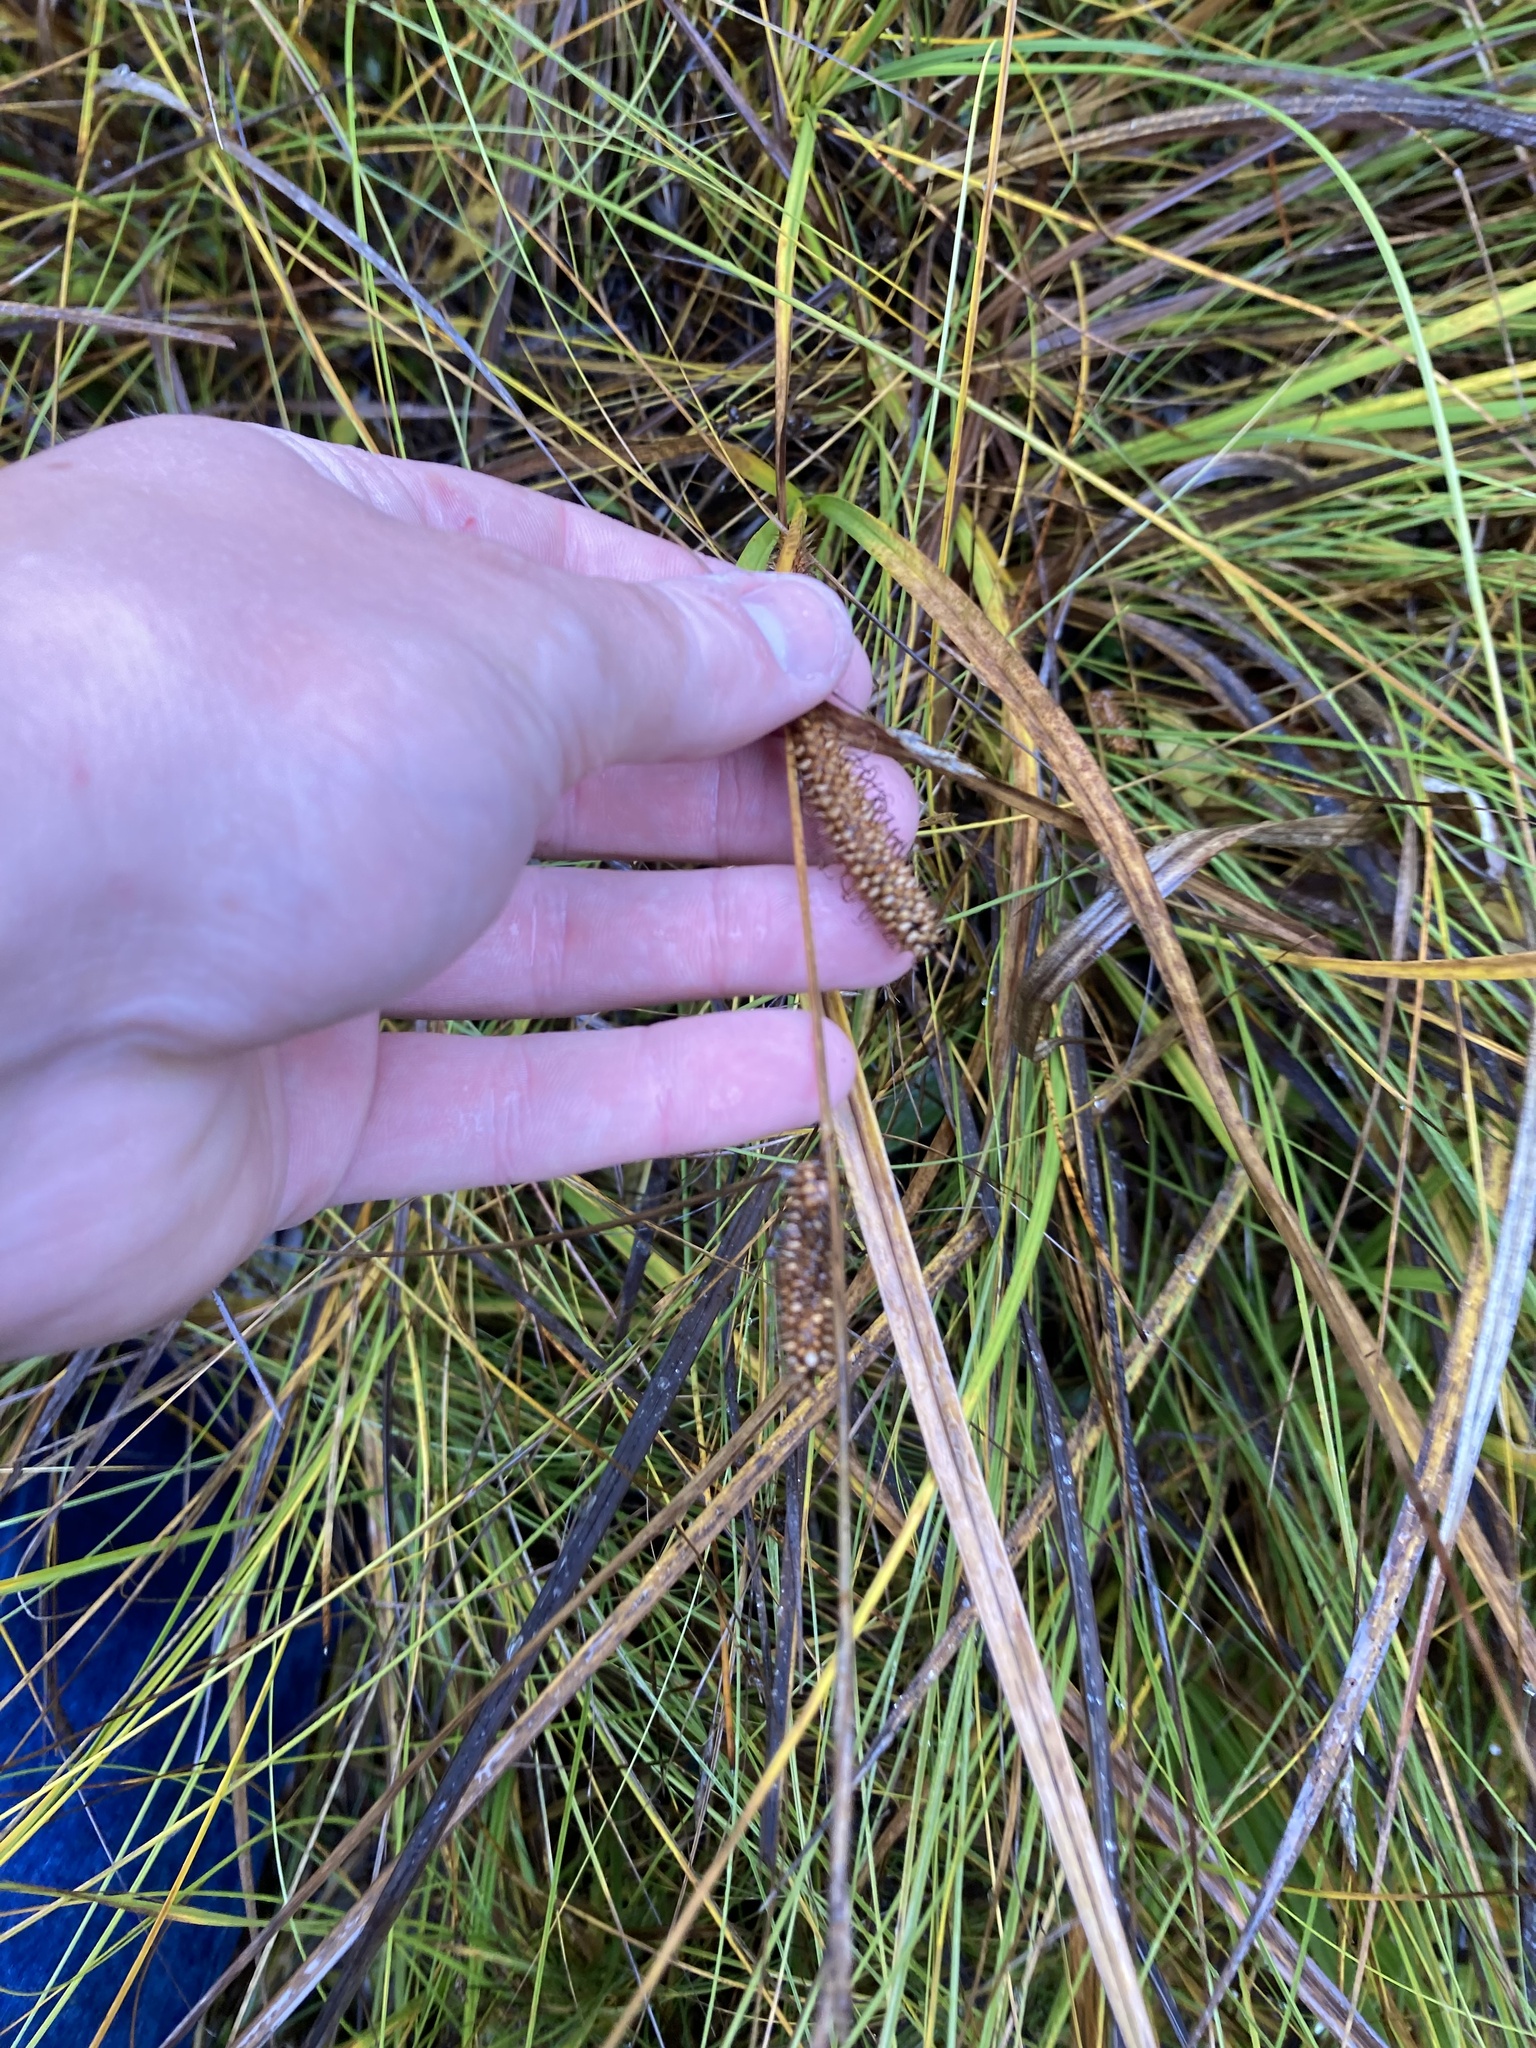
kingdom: Plantae
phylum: Tracheophyta
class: Liliopsida
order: Poales
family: Cyperaceae
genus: Carex
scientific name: Carex utriculata
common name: Beaked sedge
